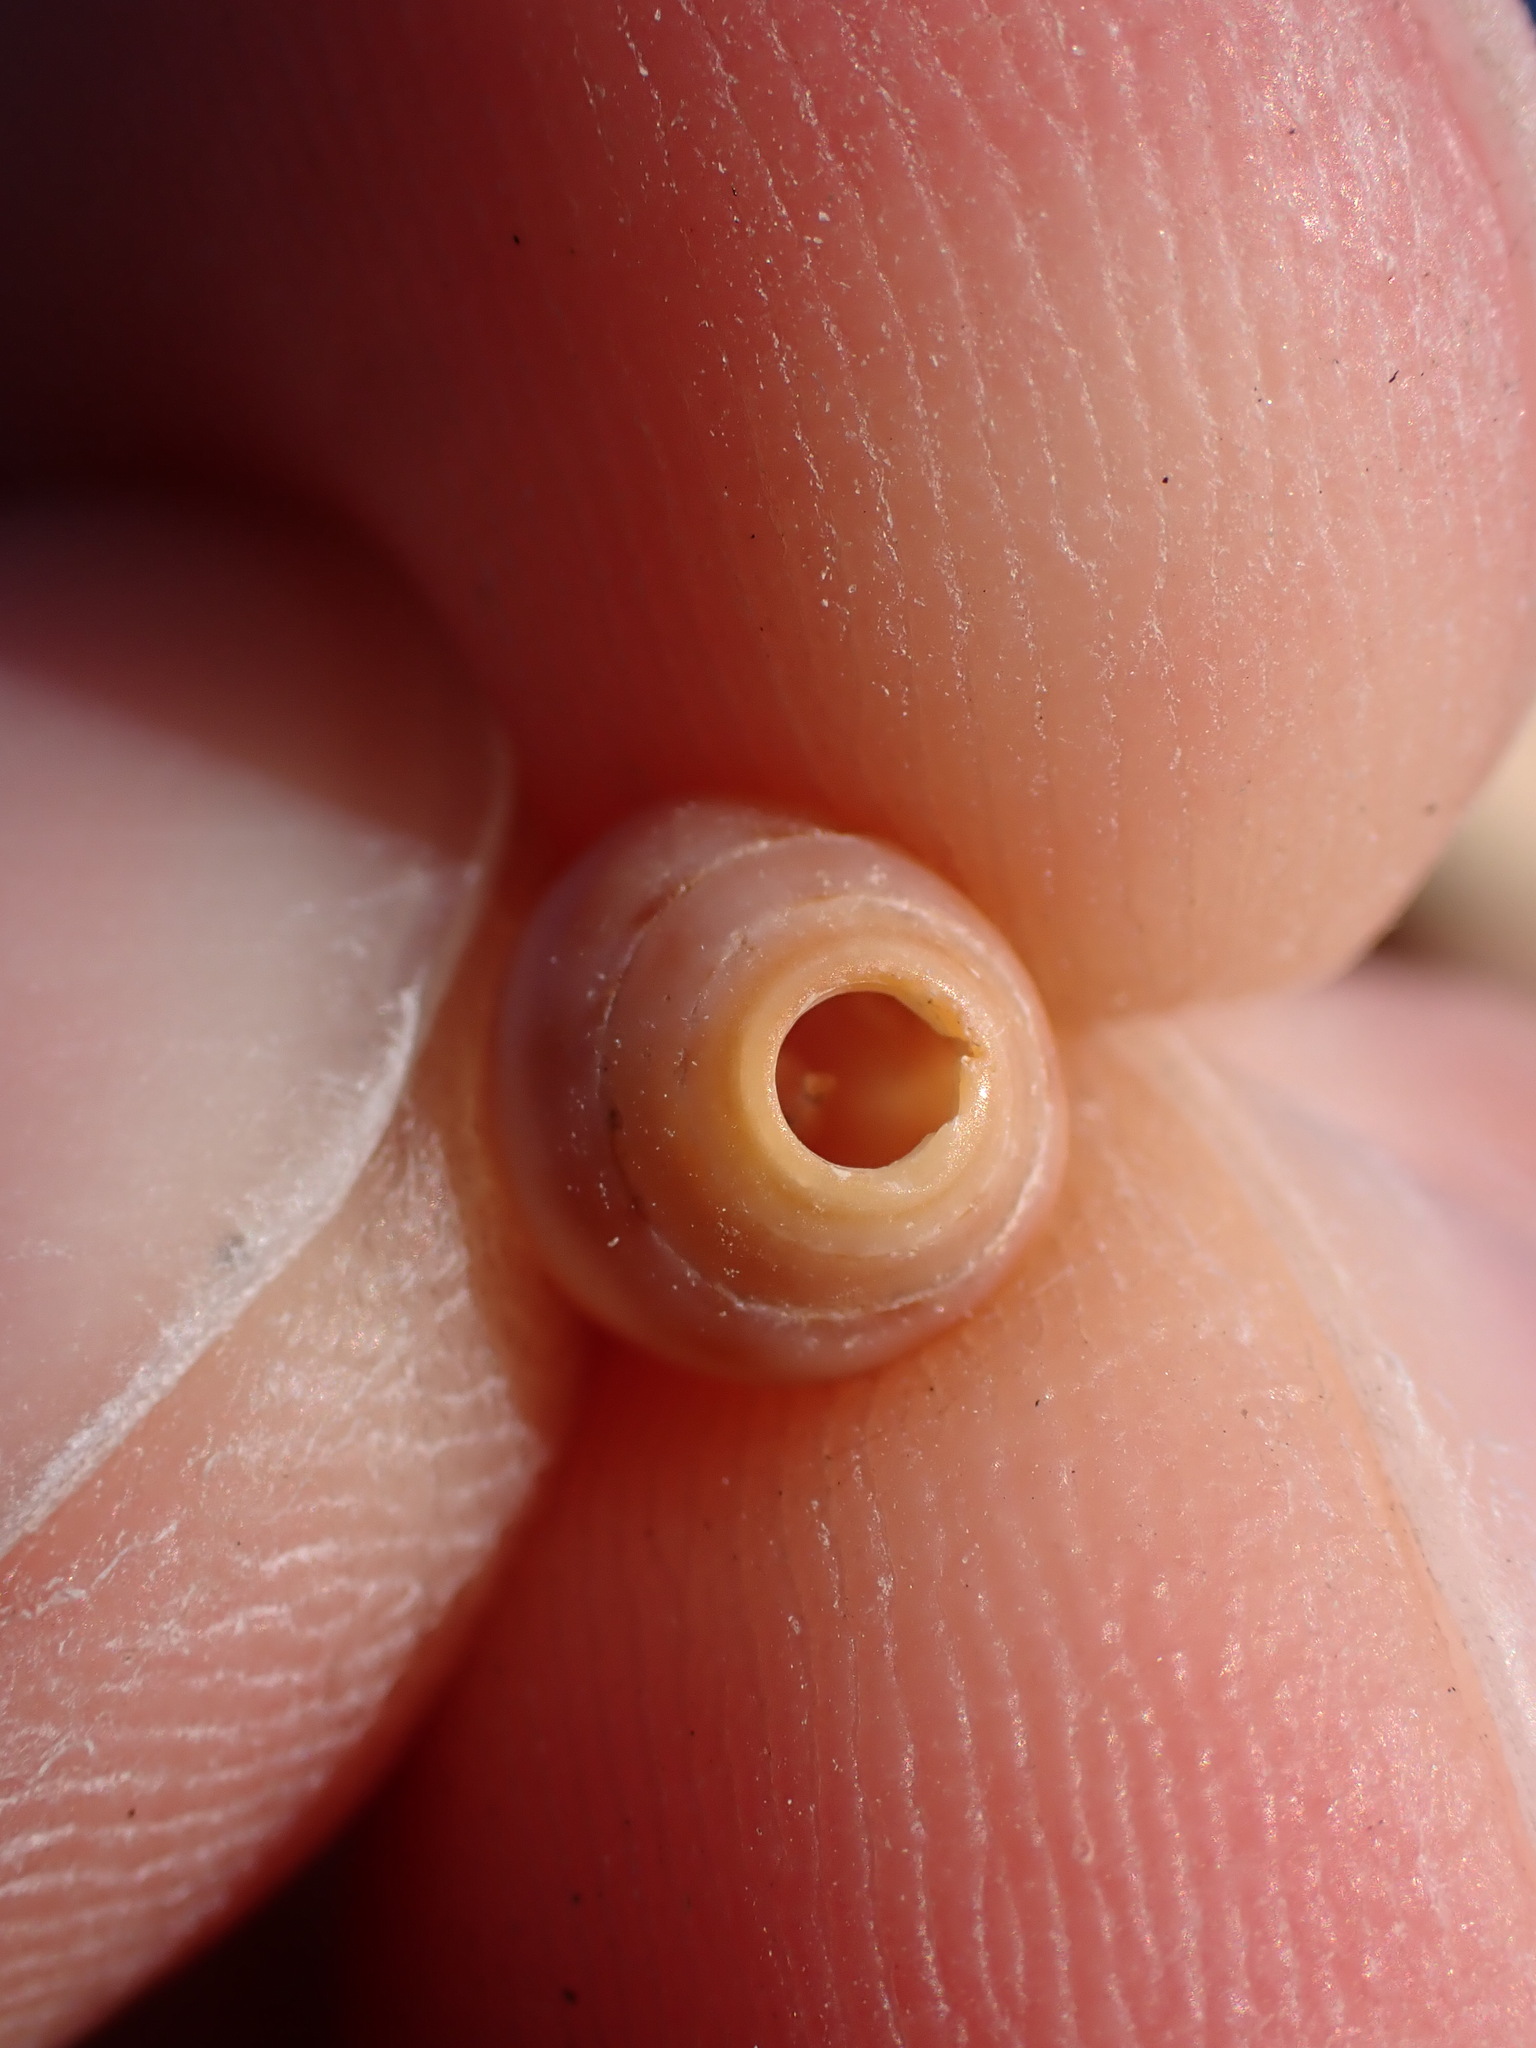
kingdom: Animalia
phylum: Mollusca
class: Gastropoda
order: Neogastropoda
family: Conidae
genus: Conus
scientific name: Conus ventricosus
